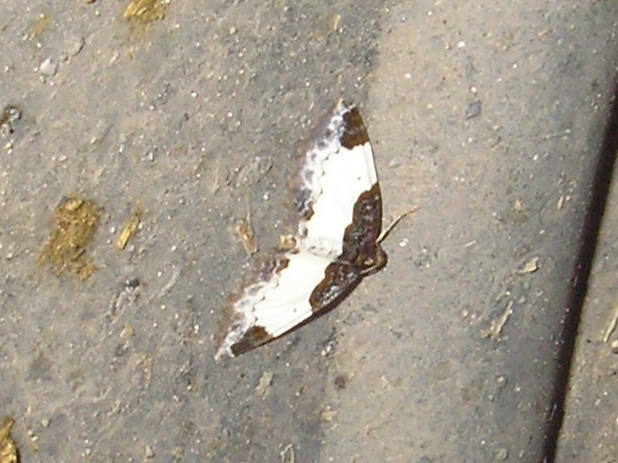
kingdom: Animalia
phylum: Arthropoda
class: Insecta
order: Lepidoptera
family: Geometridae
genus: Mesoleuca
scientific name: Mesoleuca albicillata
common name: Beautiful carpet
